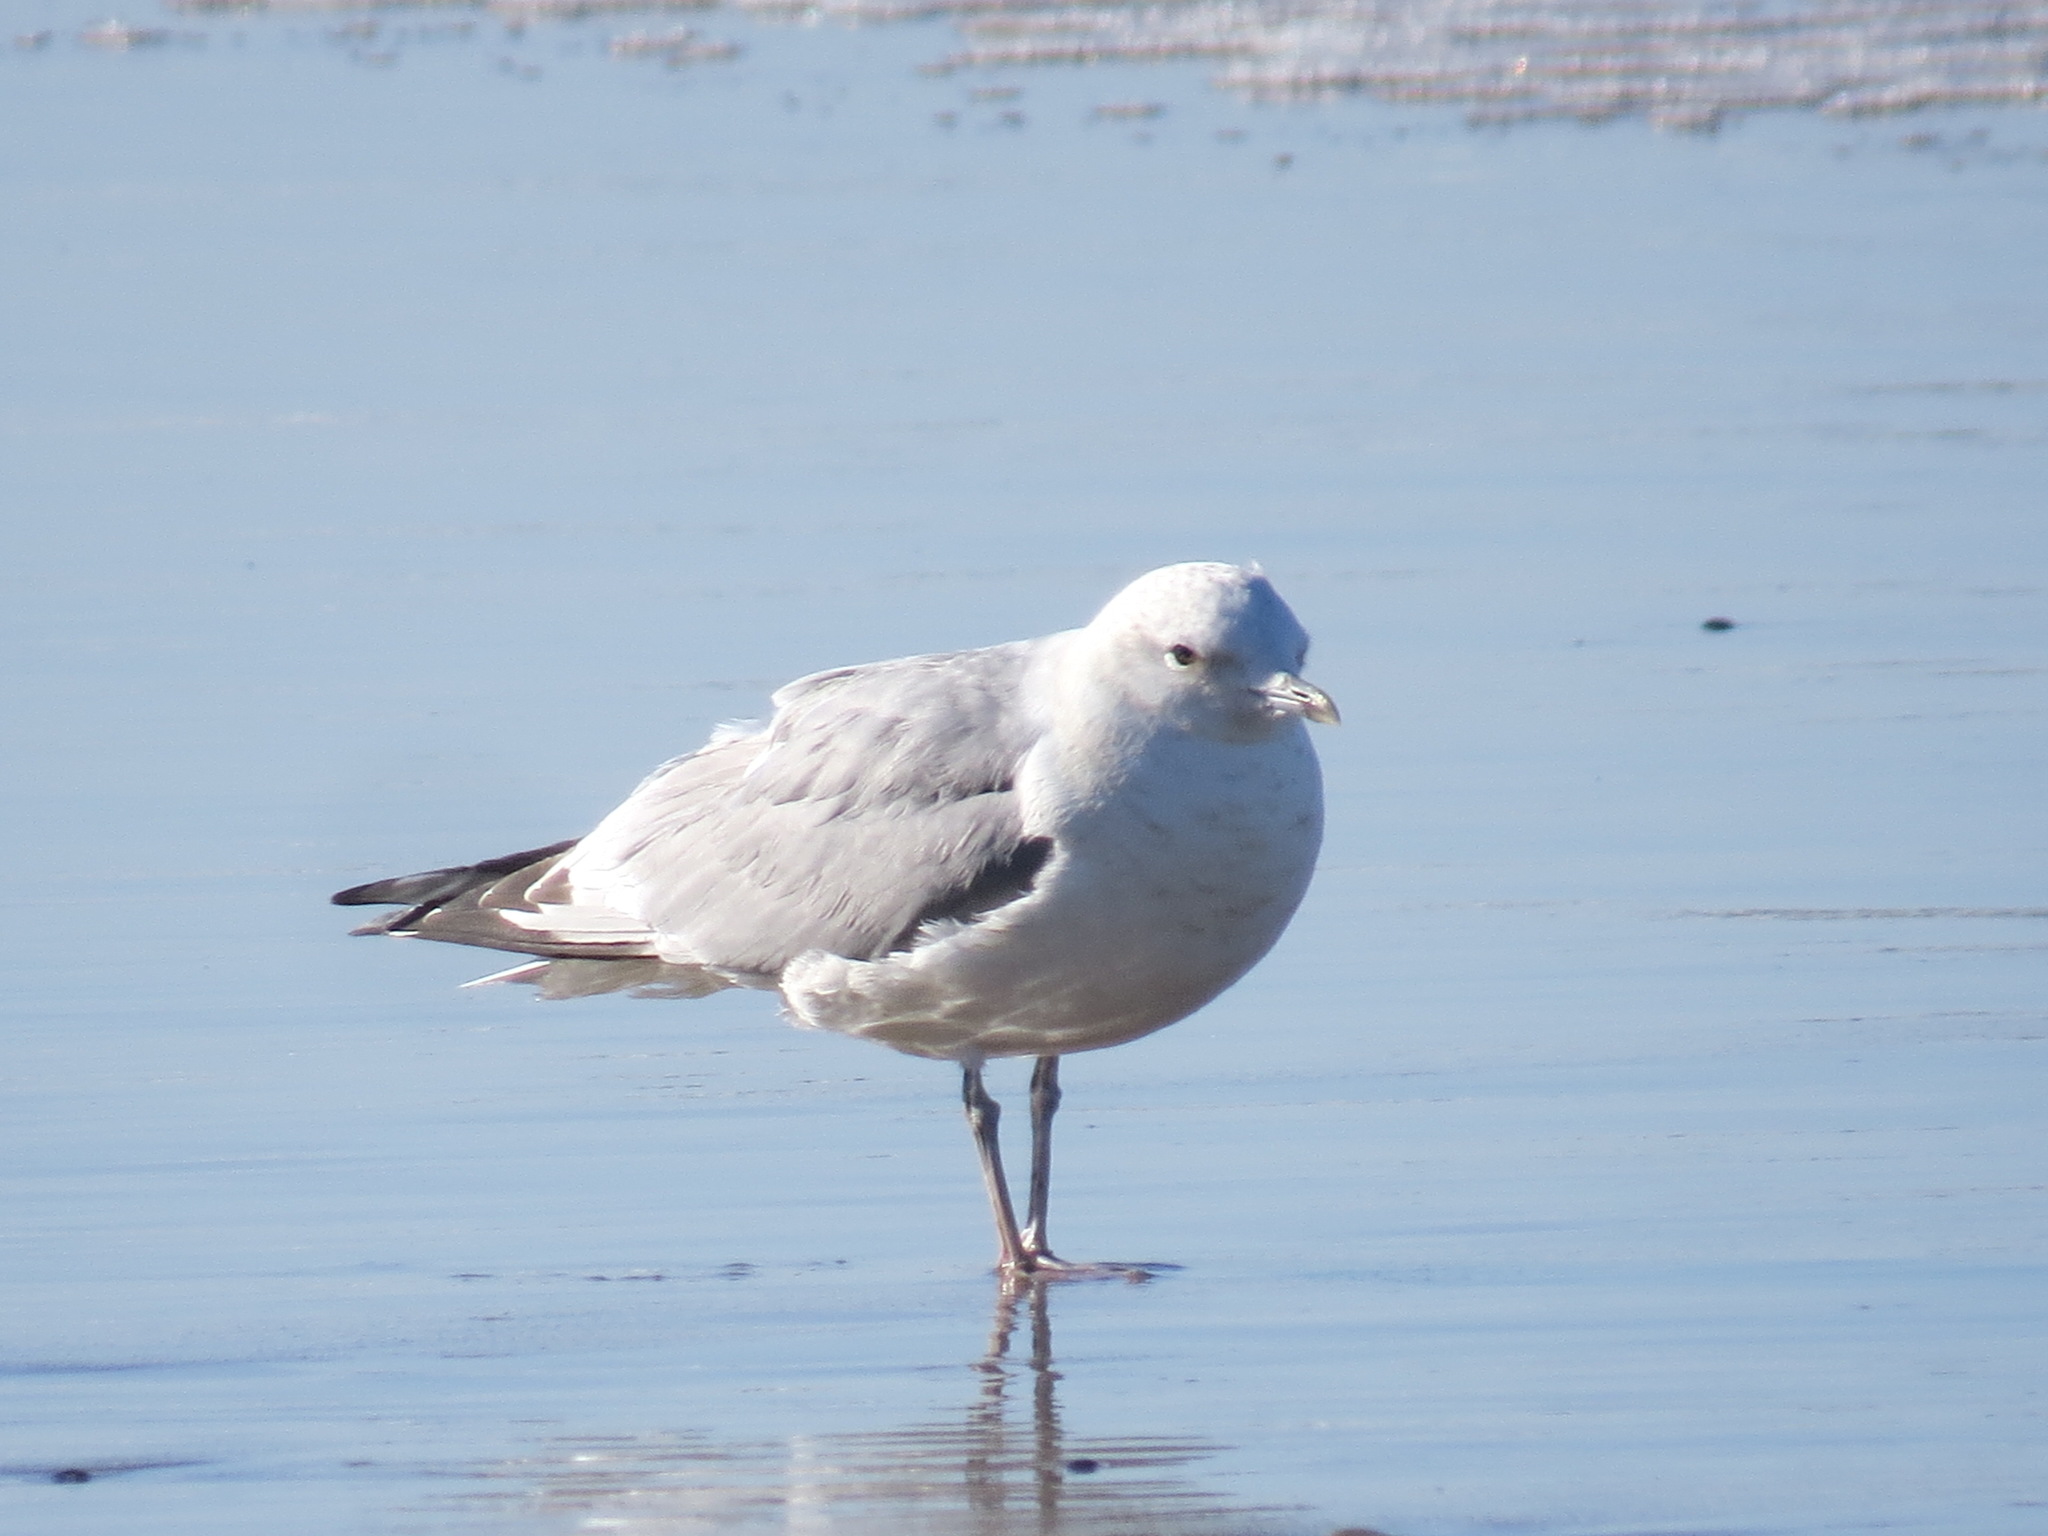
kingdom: Animalia
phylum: Chordata
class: Aves
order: Charadriiformes
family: Laridae
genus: Larus
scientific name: Larus brachyrhynchus
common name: Short-billed gull
